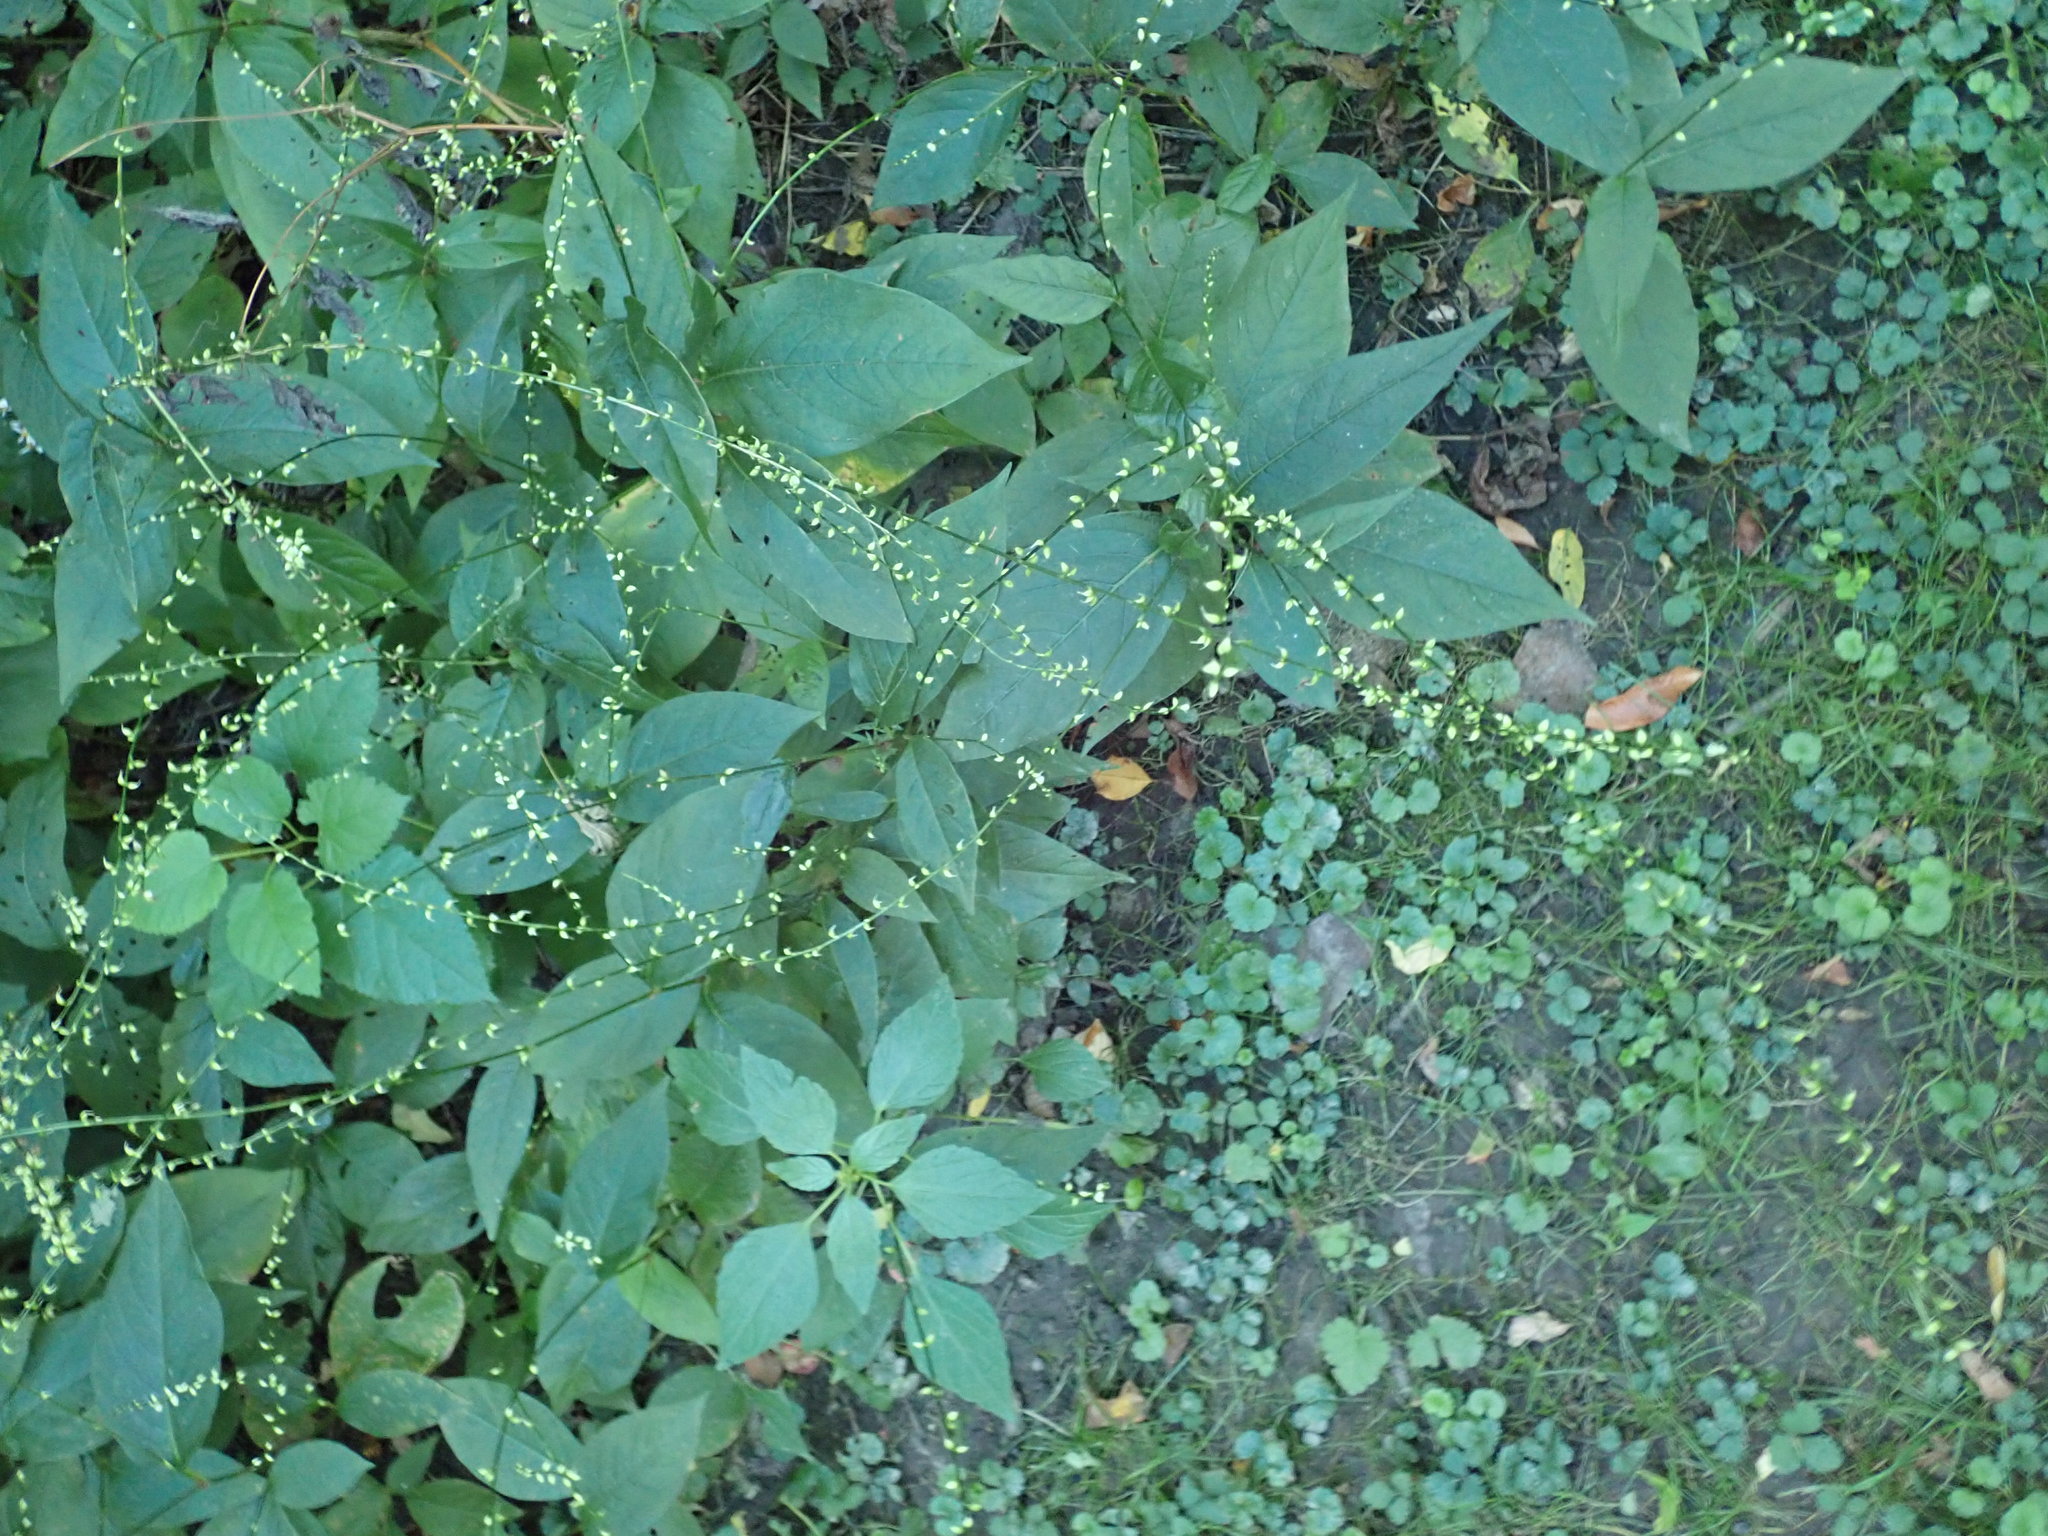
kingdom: Plantae
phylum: Tracheophyta
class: Magnoliopsida
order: Caryophyllales
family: Polygonaceae
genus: Persicaria
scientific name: Persicaria virginiana
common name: Jumpseed
